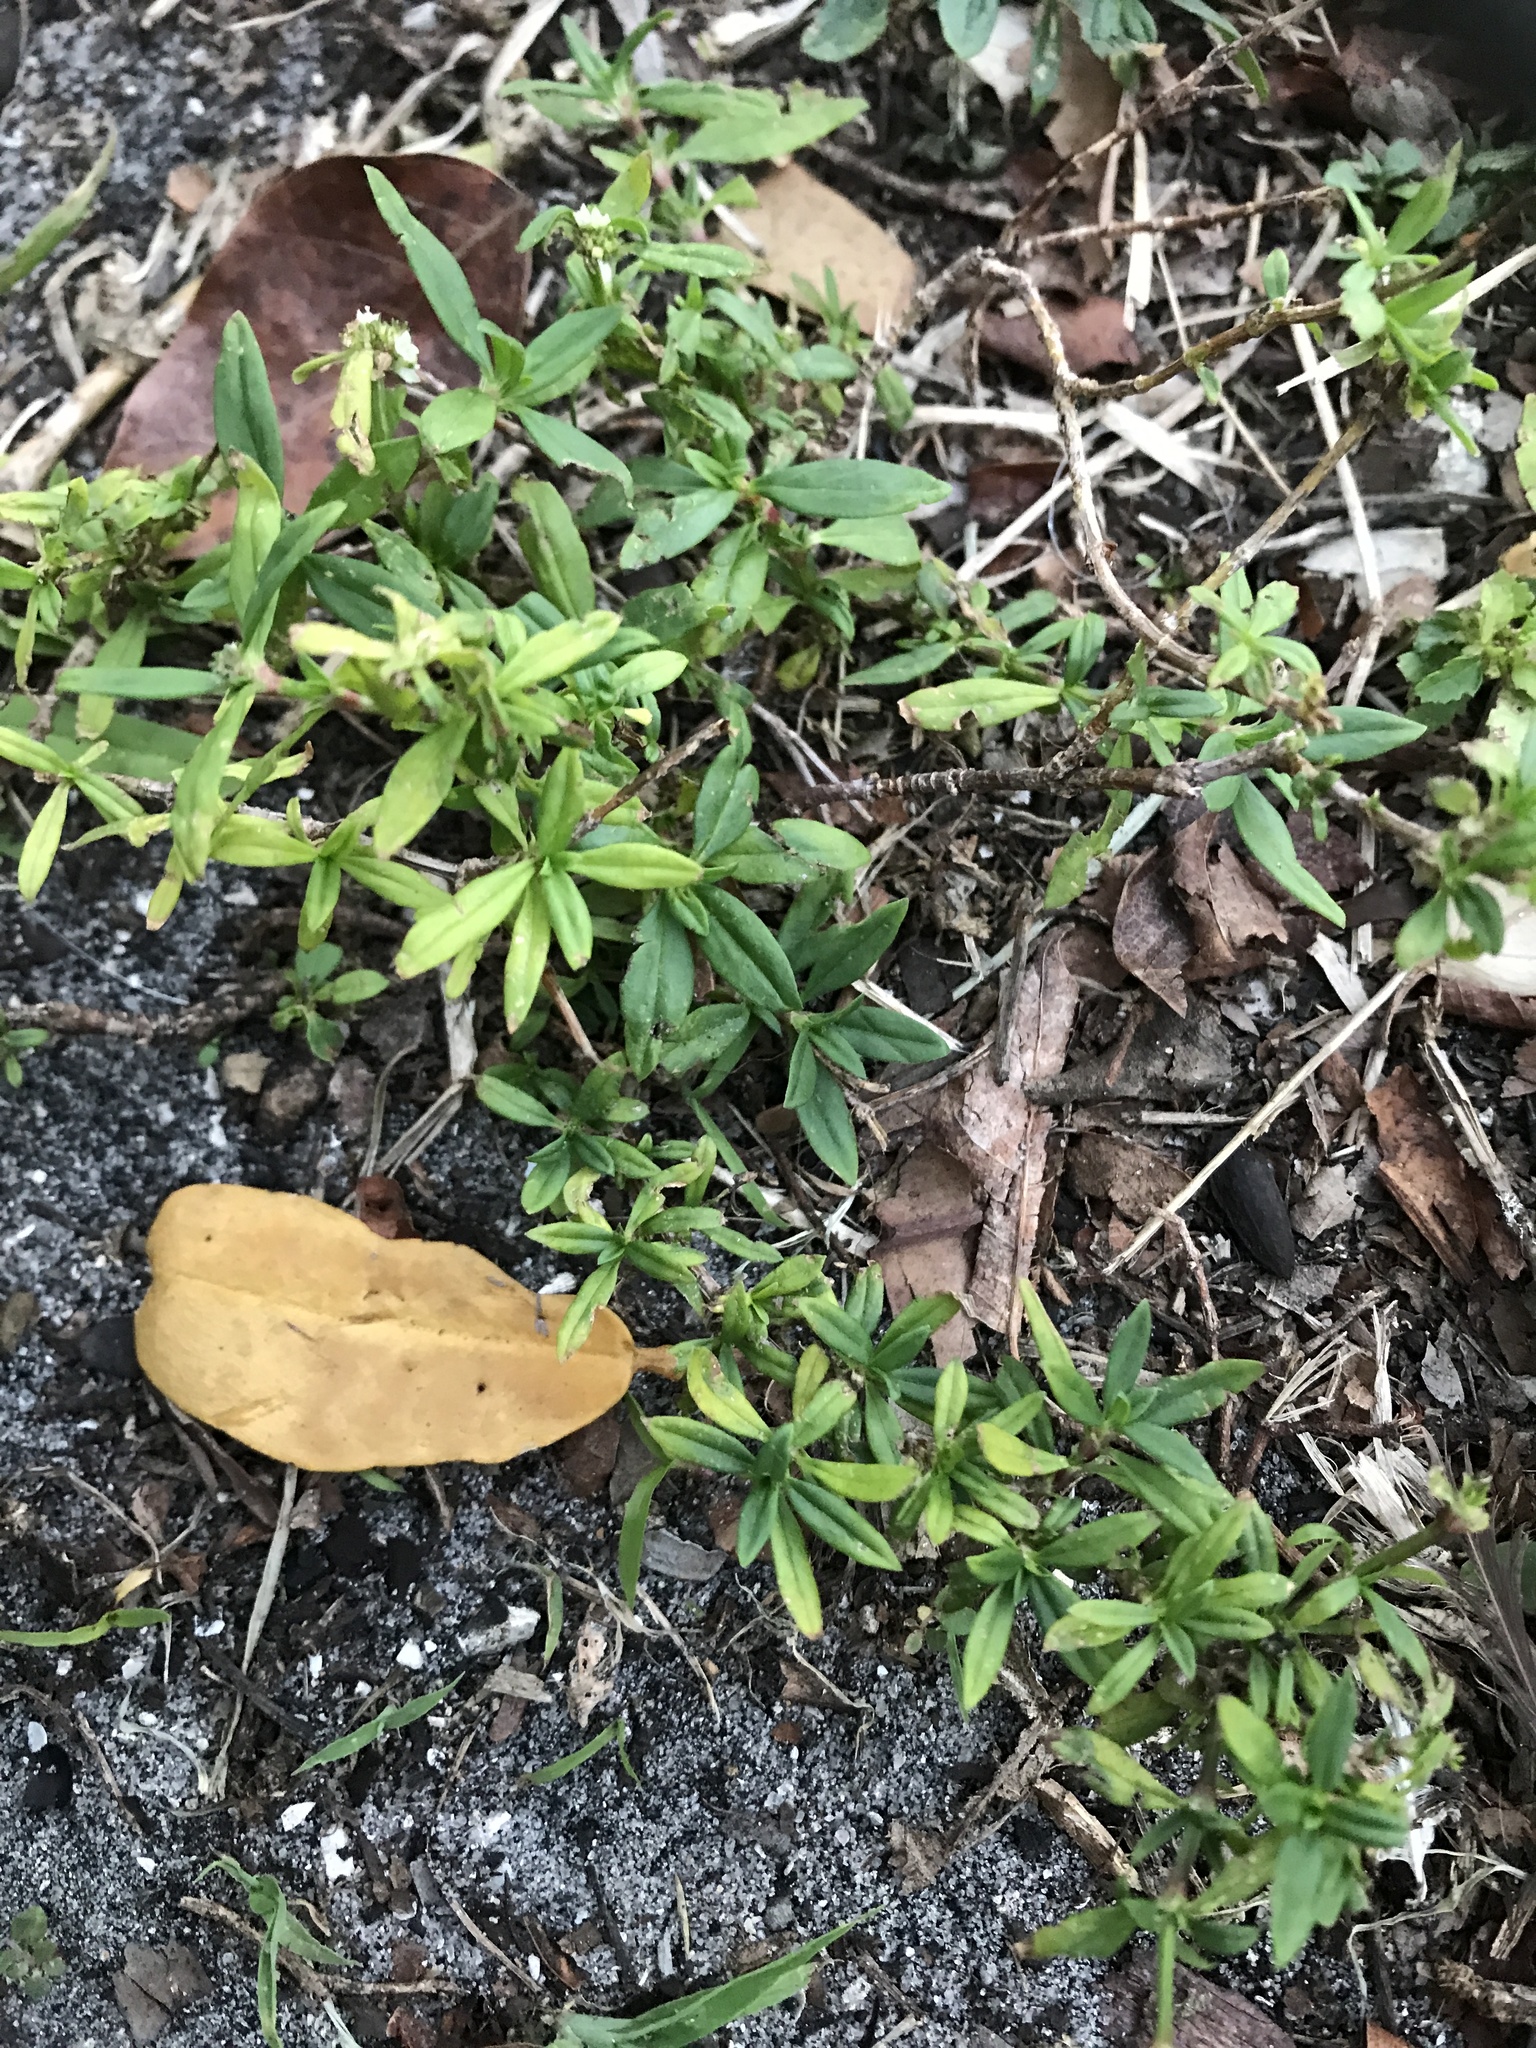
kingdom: Plantae
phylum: Tracheophyta
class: Magnoliopsida
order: Gentianales
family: Rubiaceae
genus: Spermacoce
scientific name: Spermacoce verticillata
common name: Shrubby false buttonweed
